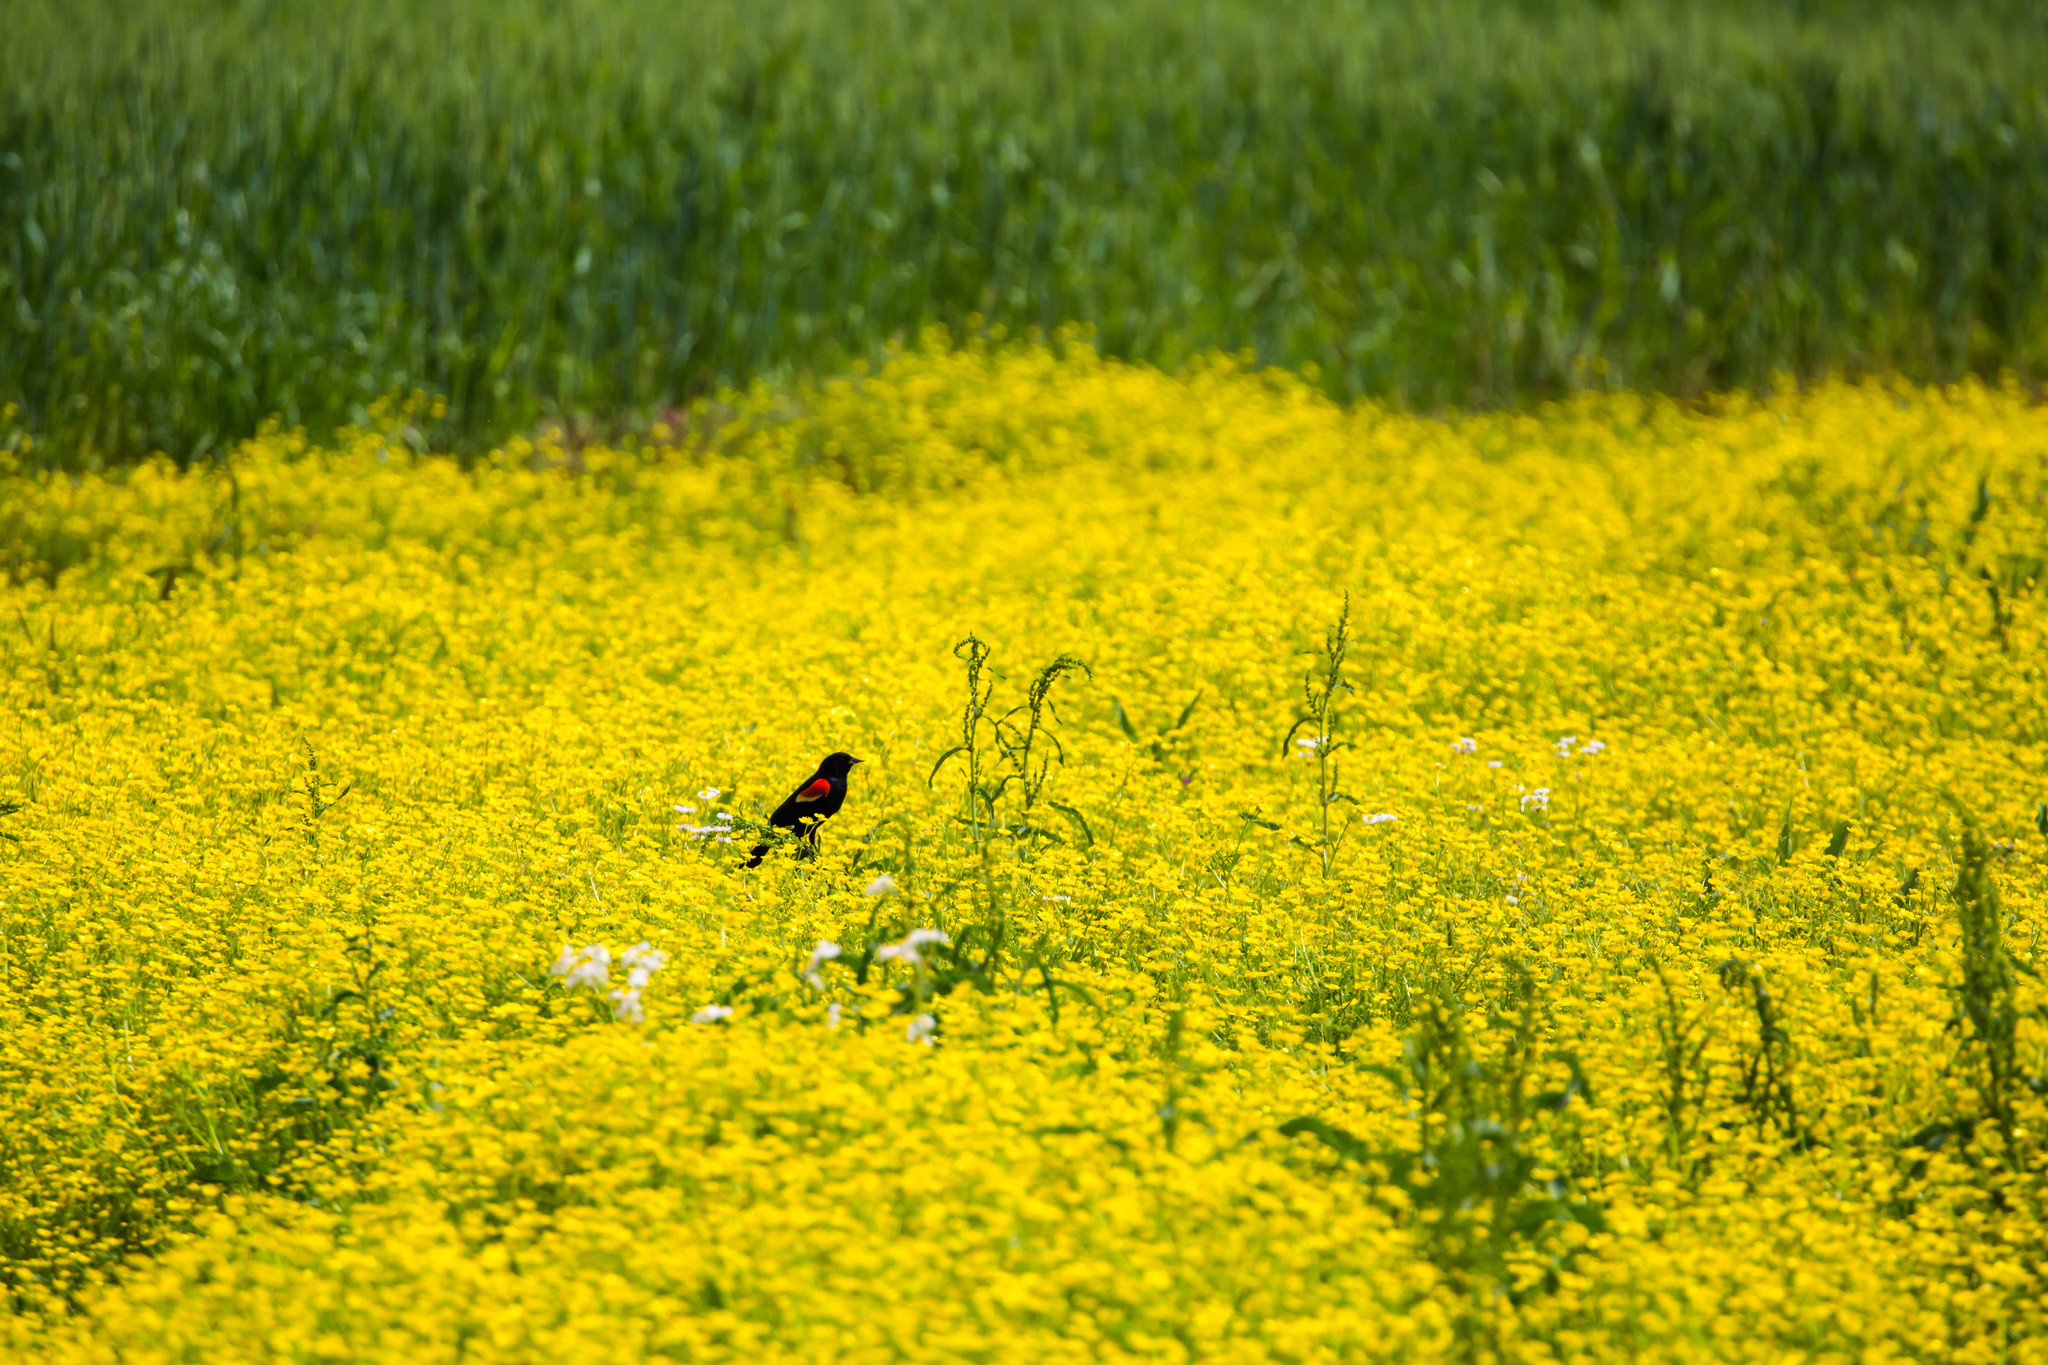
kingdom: Animalia
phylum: Chordata
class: Aves
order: Passeriformes
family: Icteridae
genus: Agelaius
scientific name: Agelaius phoeniceus
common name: Red-winged blackbird
